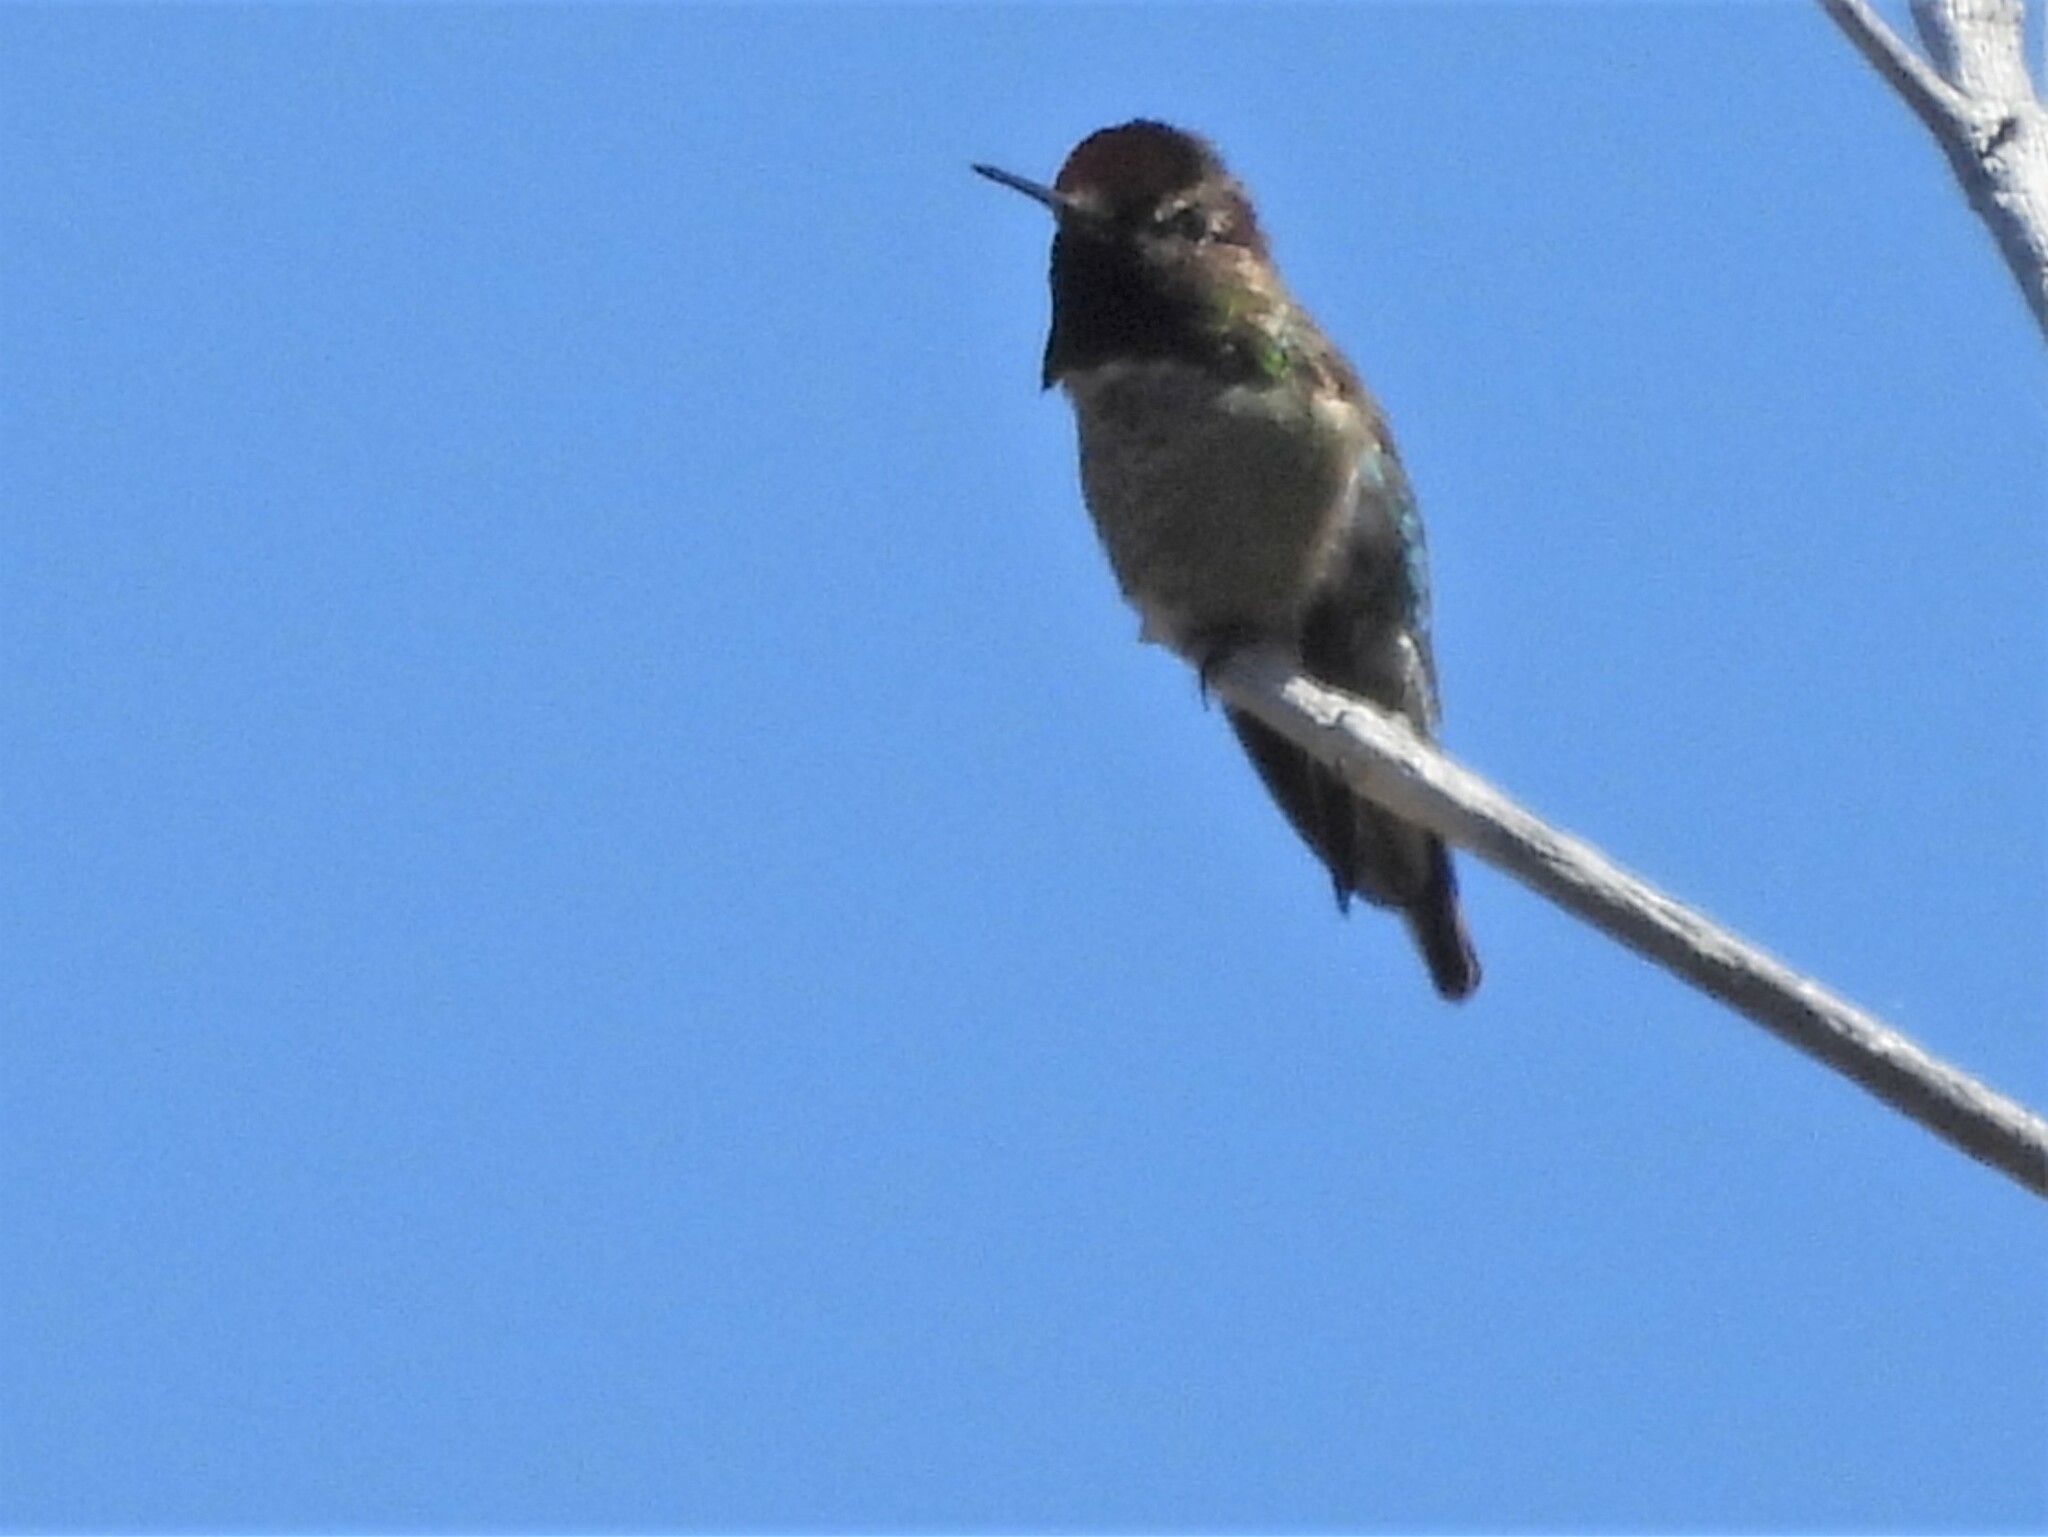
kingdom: Animalia
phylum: Chordata
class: Aves
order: Apodiformes
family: Trochilidae
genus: Calypte
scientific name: Calypte anna
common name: Anna's hummingbird
